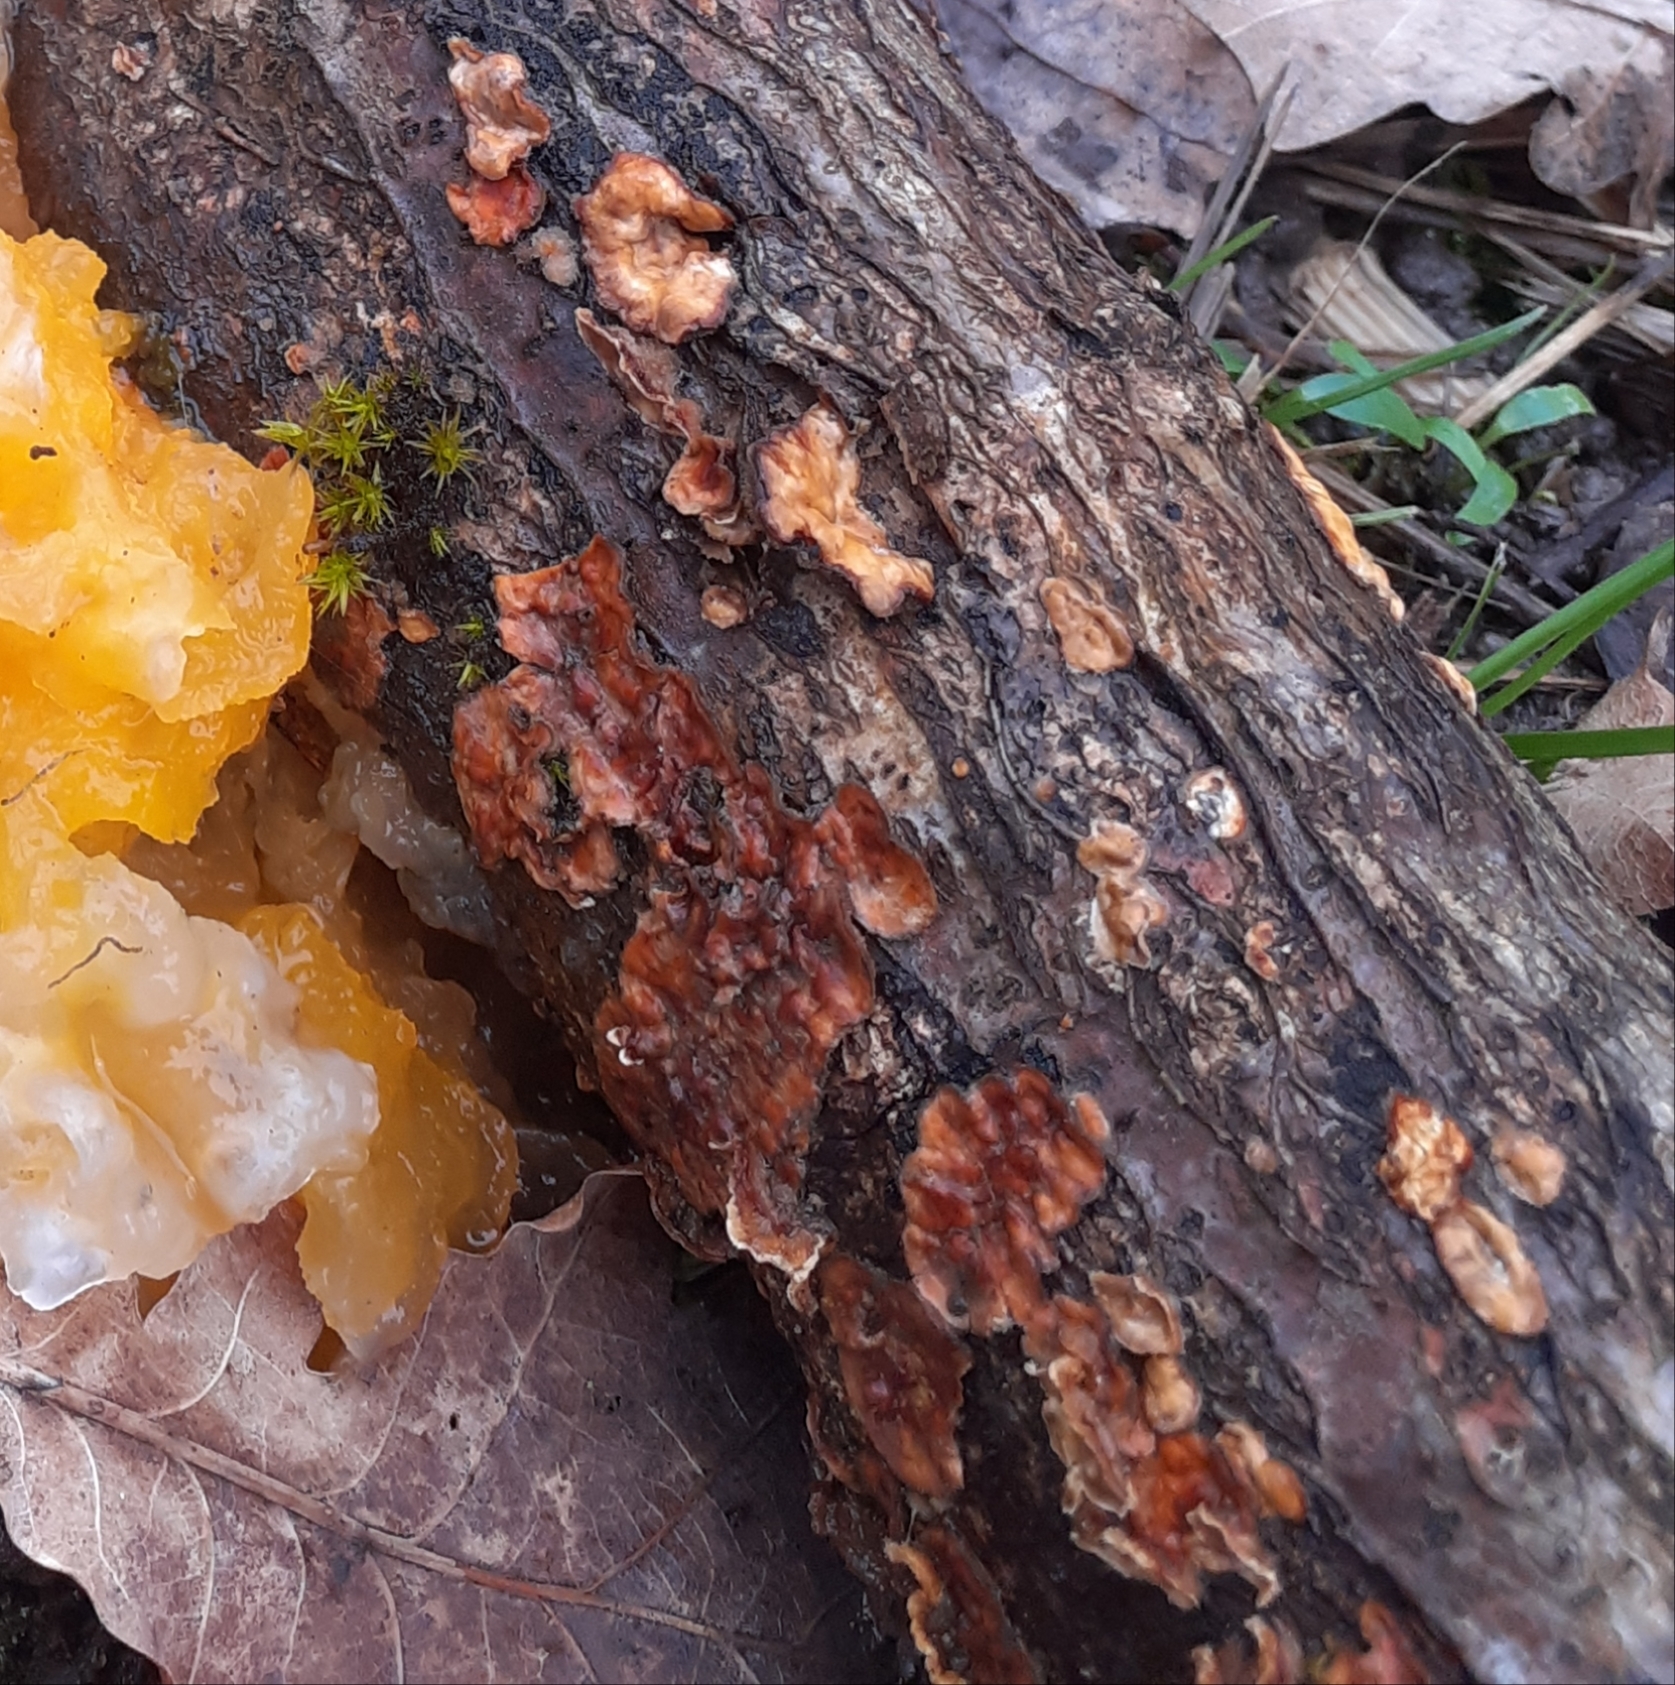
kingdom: Fungi
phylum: Basidiomycota
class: Agaricomycetes
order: Russulales
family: Stereaceae
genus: Stereum
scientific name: Stereum hirsutum
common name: Hairy curtain crust
